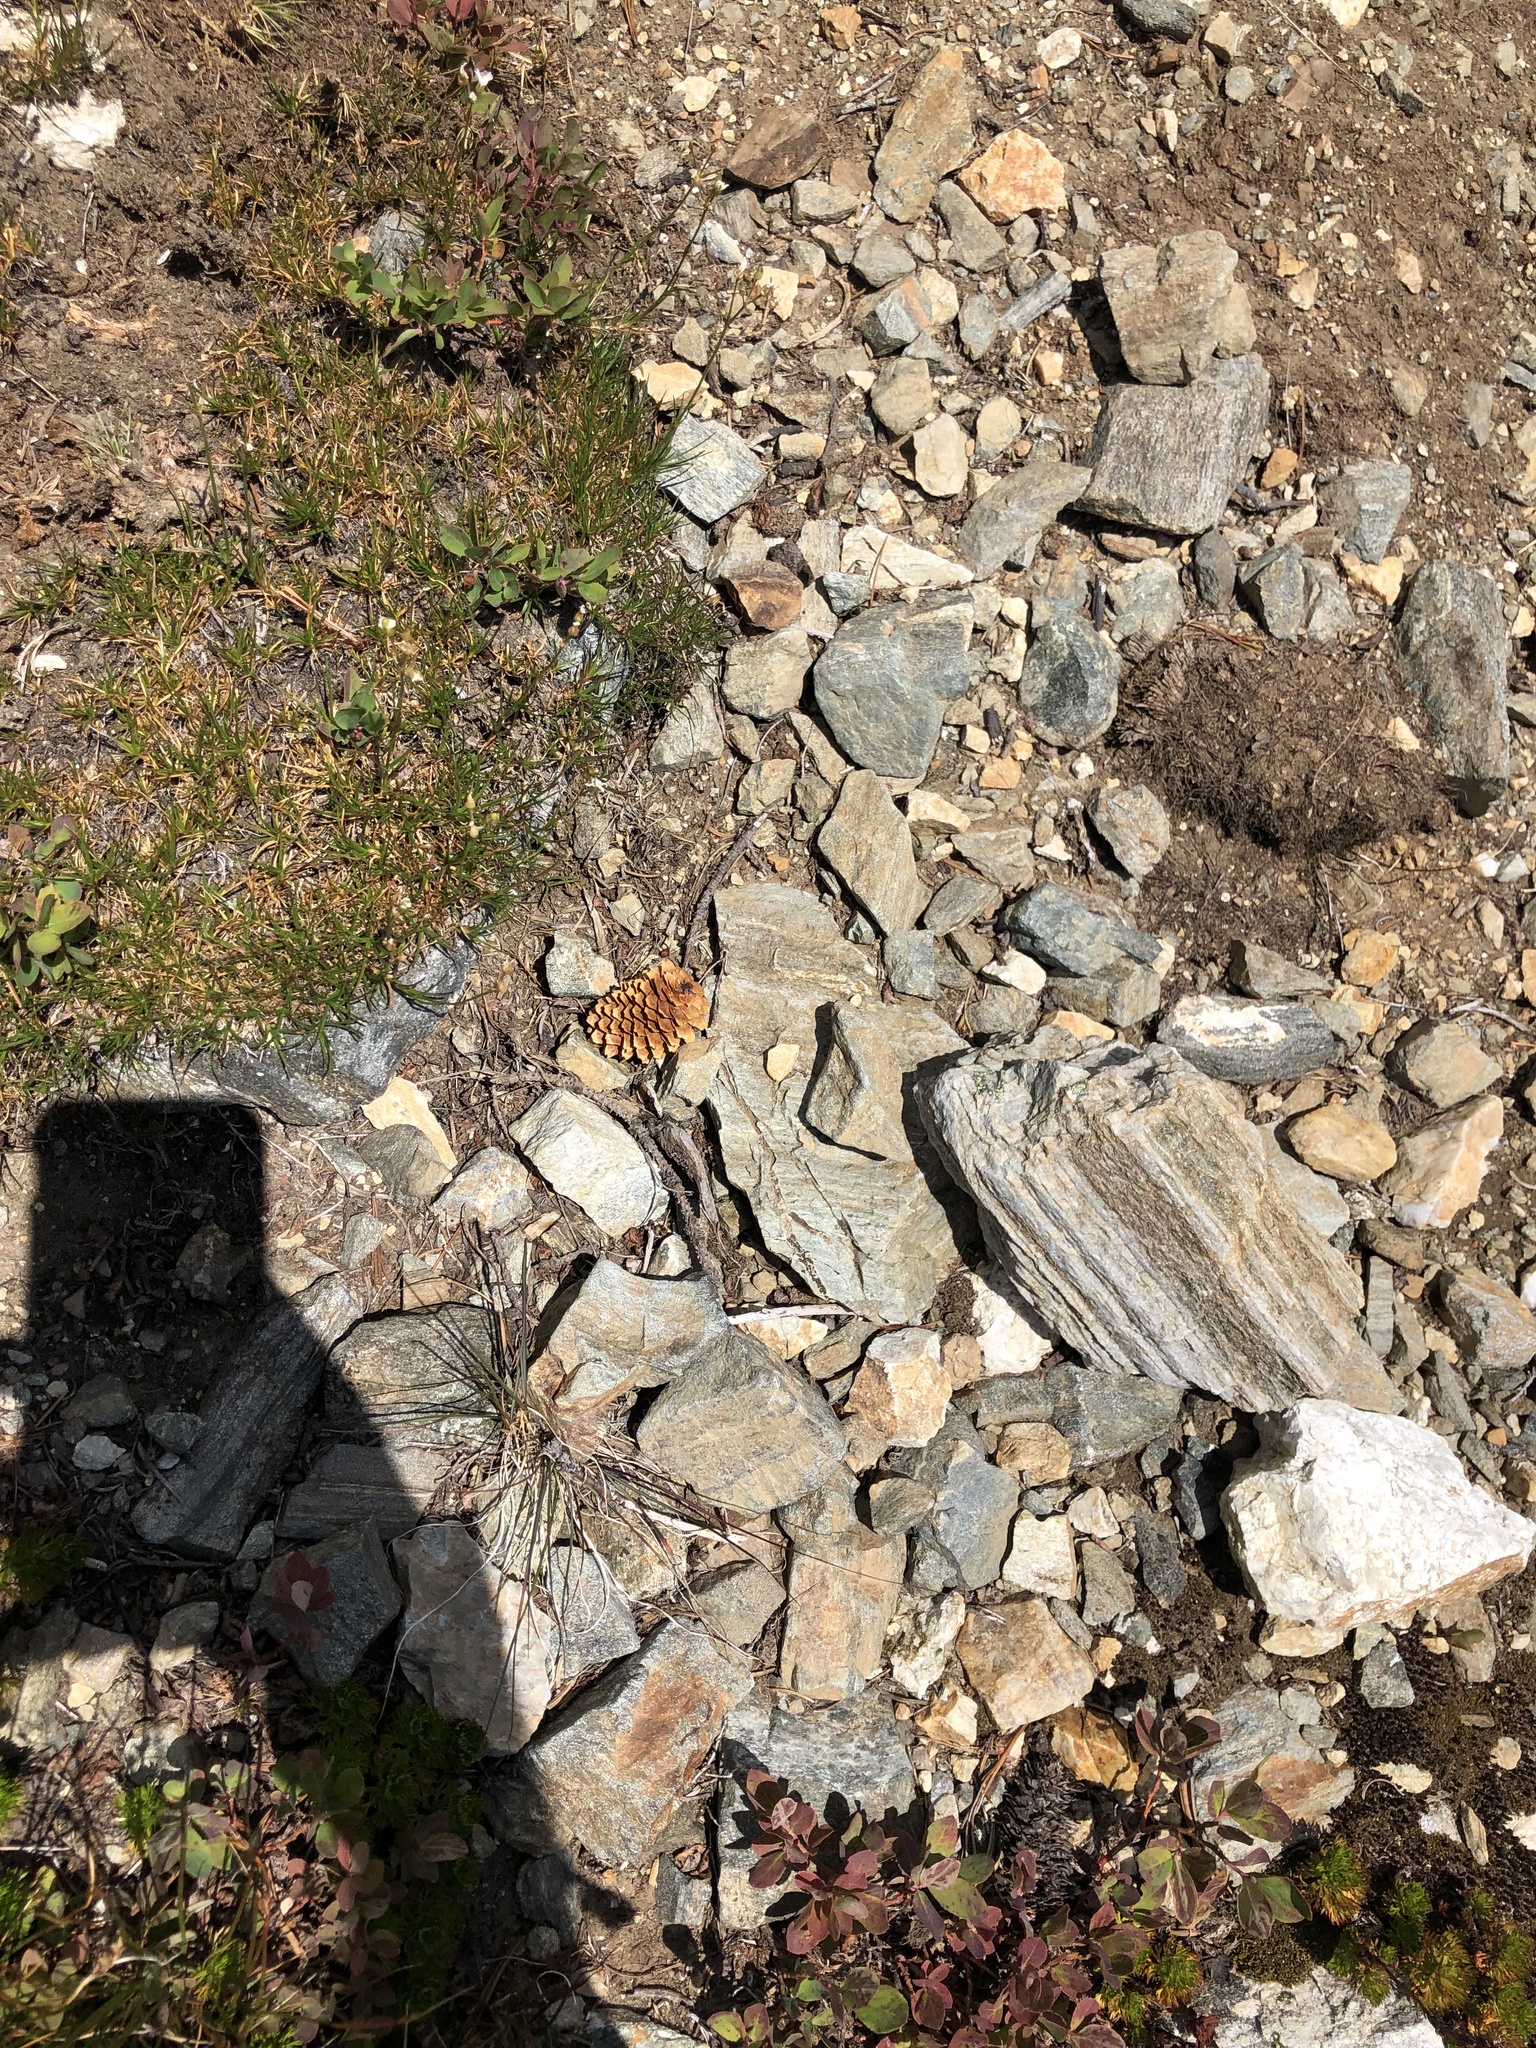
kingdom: Plantae
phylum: Tracheophyta
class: Pinopsida
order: Pinales
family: Pinaceae
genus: Picea
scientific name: Picea engelmannii
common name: Engelmann spruce
